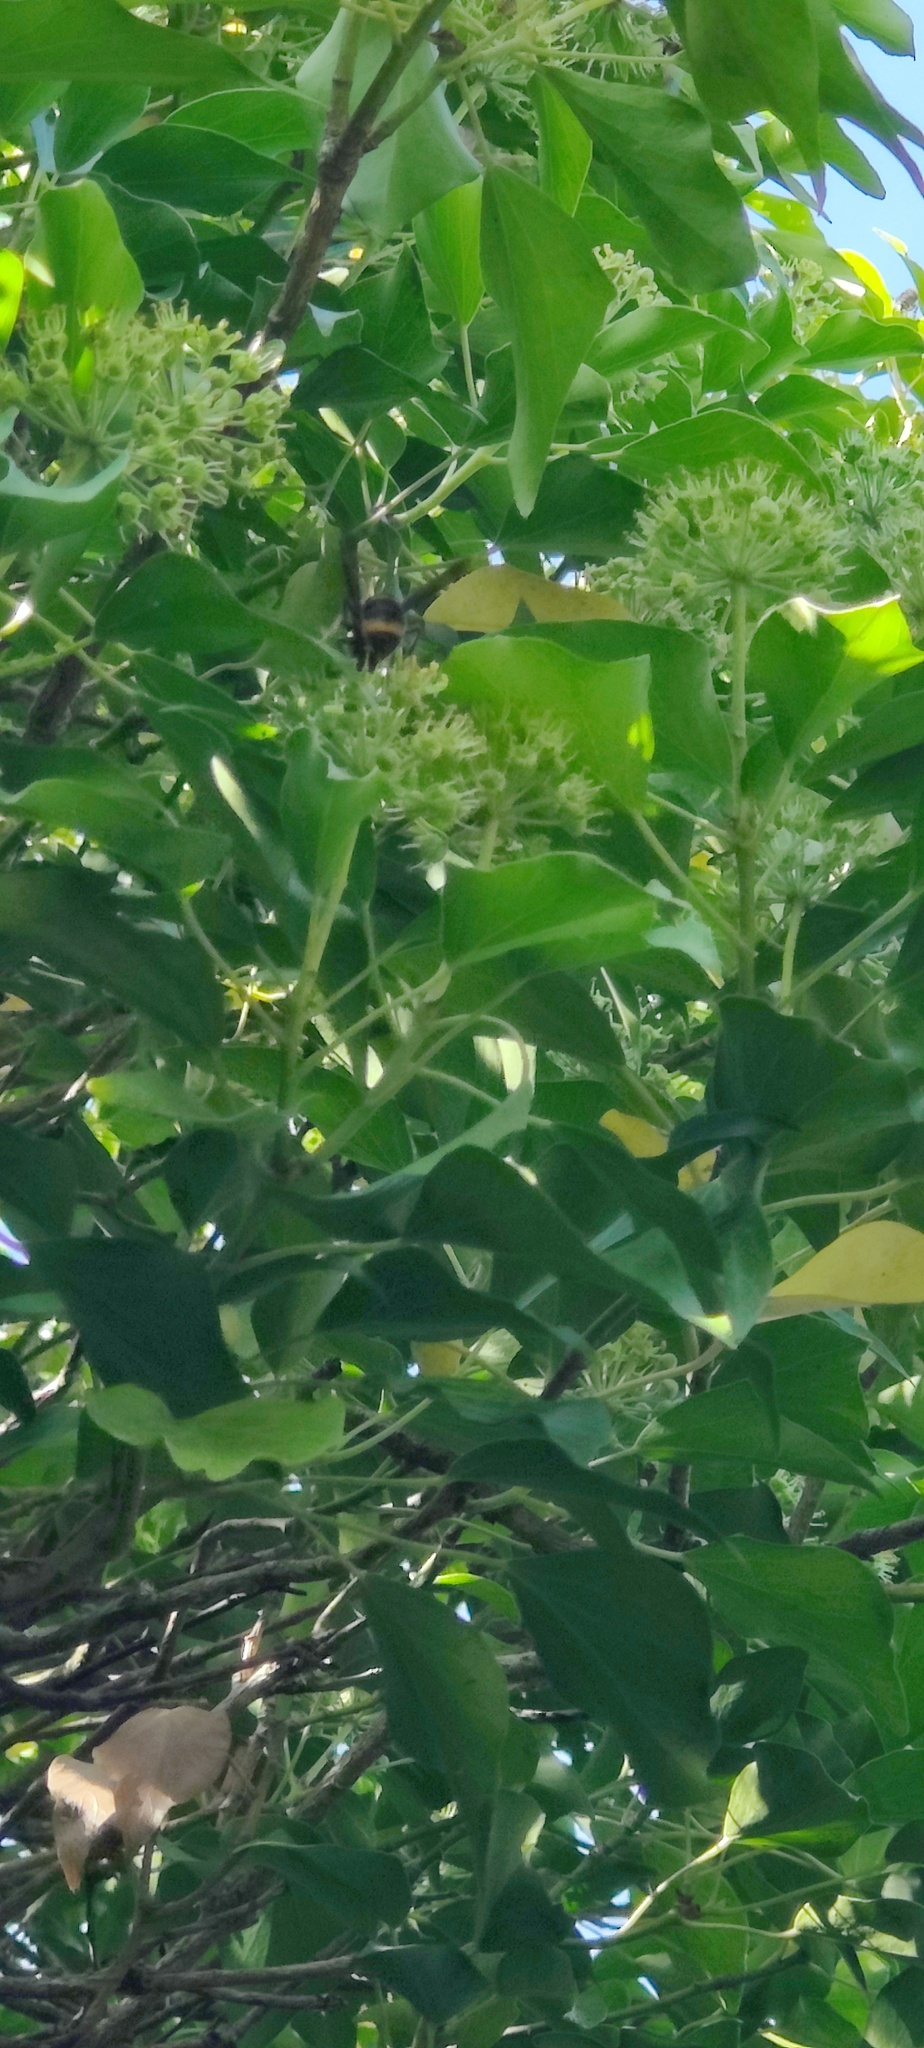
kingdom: Animalia
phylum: Arthropoda
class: Insecta
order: Hymenoptera
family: Vespidae
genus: Vespa
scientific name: Vespa velutina
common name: Asian hornet
